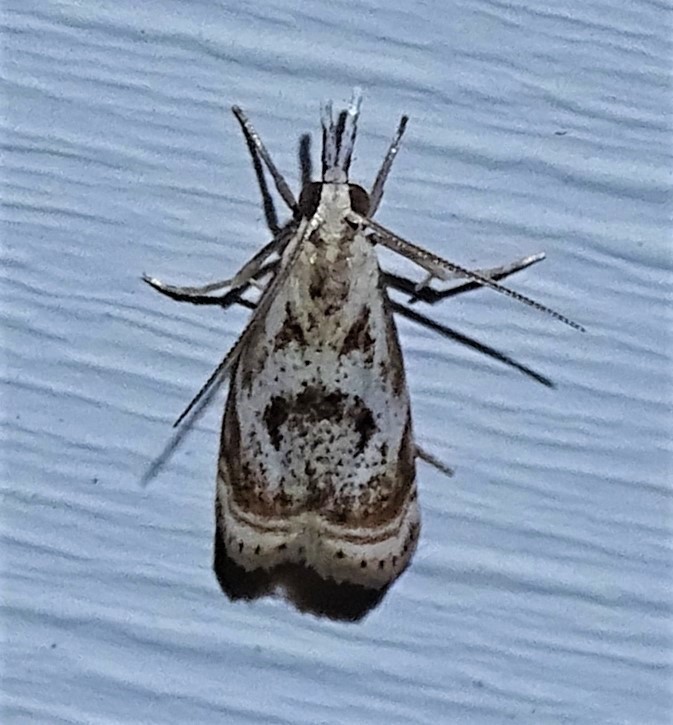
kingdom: Animalia
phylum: Arthropoda
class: Insecta
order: Lepidoptera
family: Crambidae
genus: Microcrambus
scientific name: Microcrambus elegans
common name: Elegant grass-veneer
